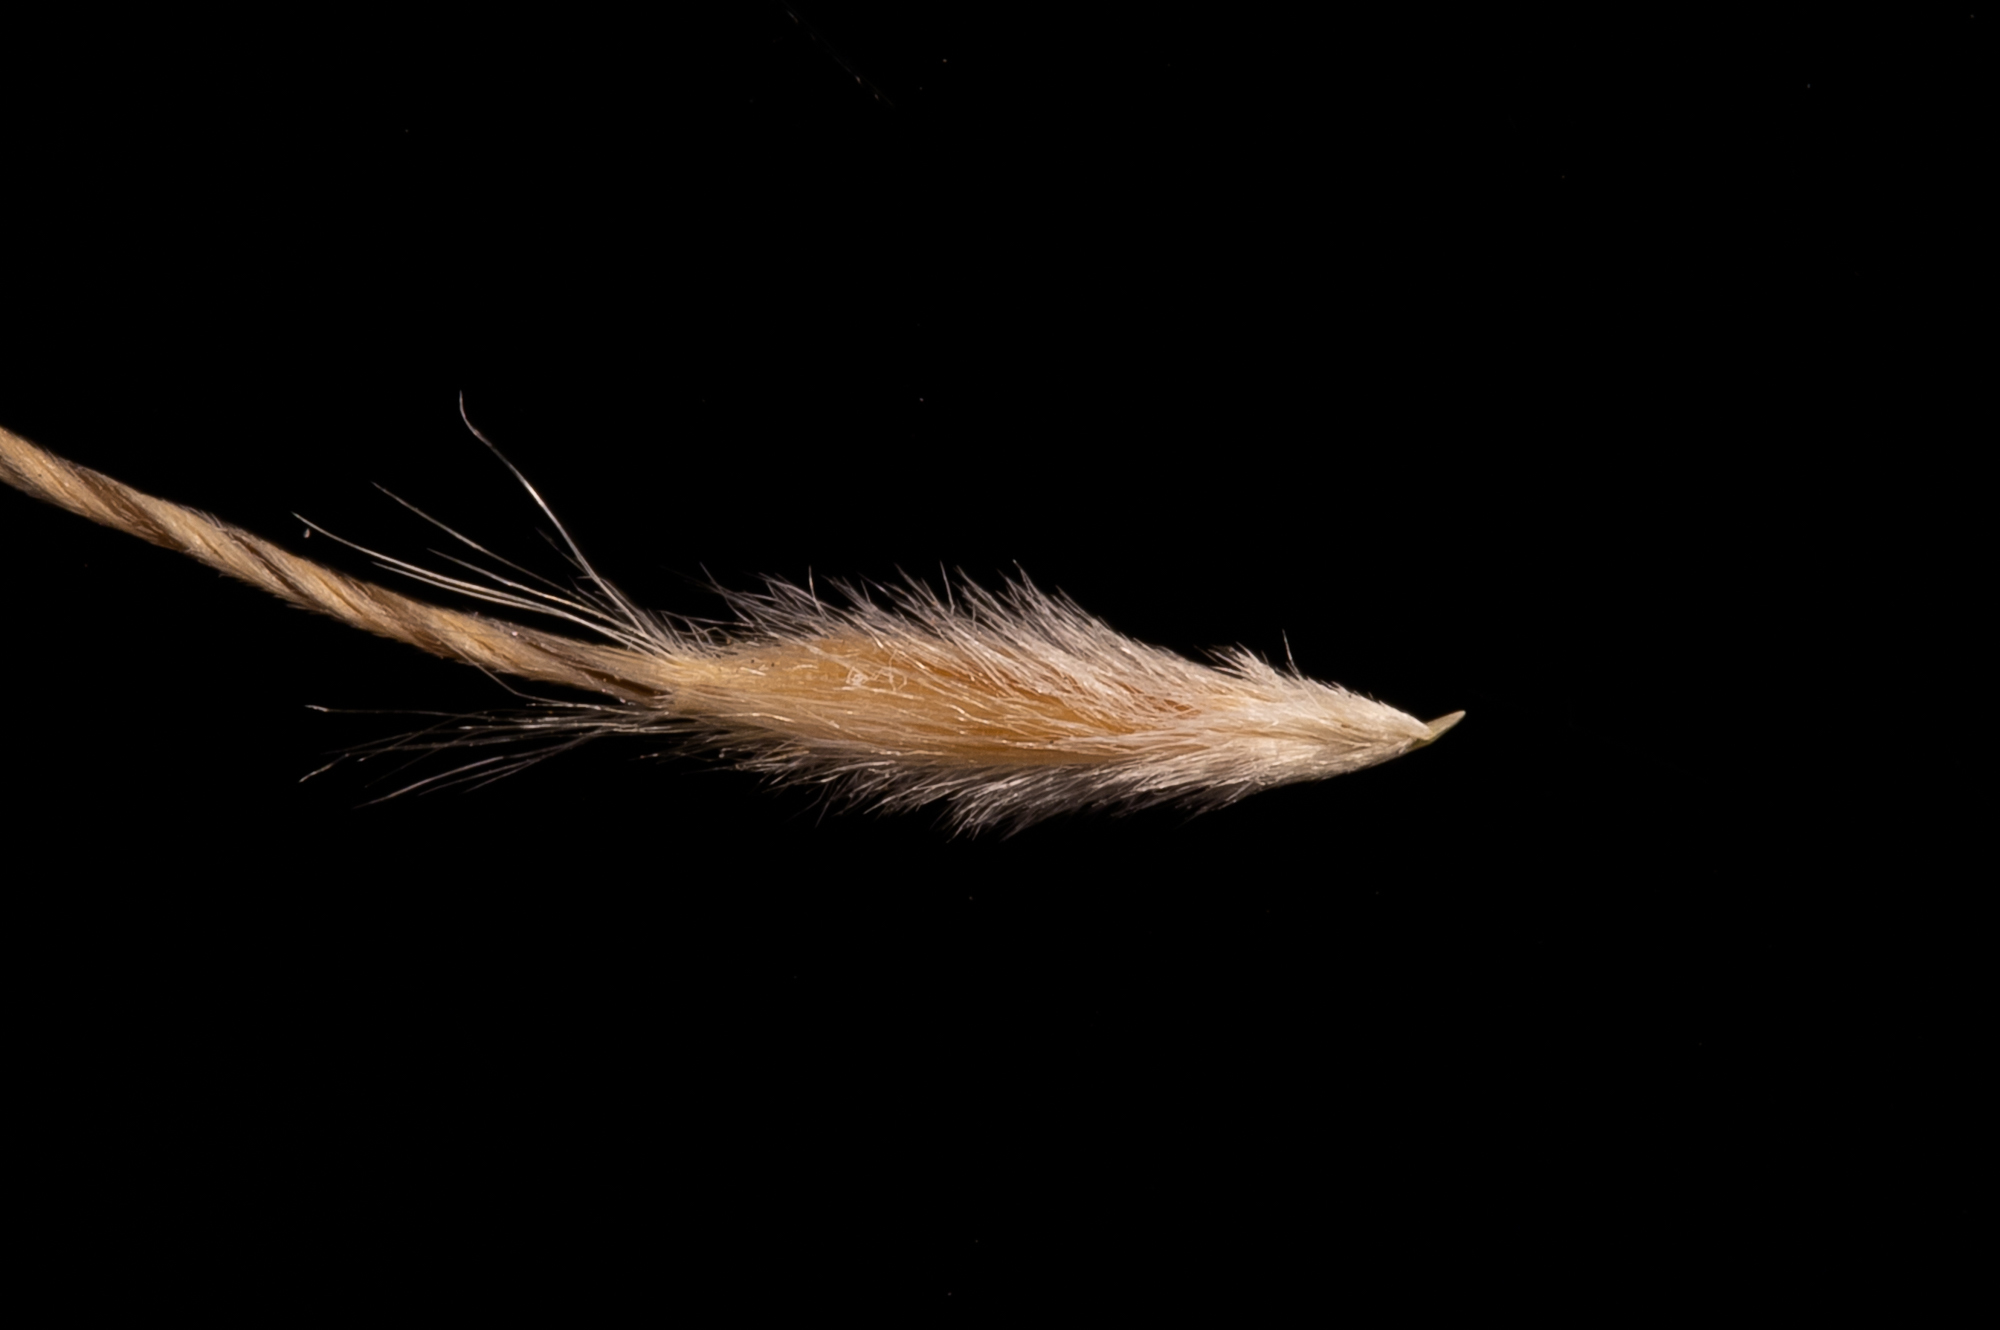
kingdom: Plantae
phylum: Tracheophyta
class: Liliopsida
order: Poales
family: Poaceae
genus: Austrostipa
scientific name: Austrostipa blackii
